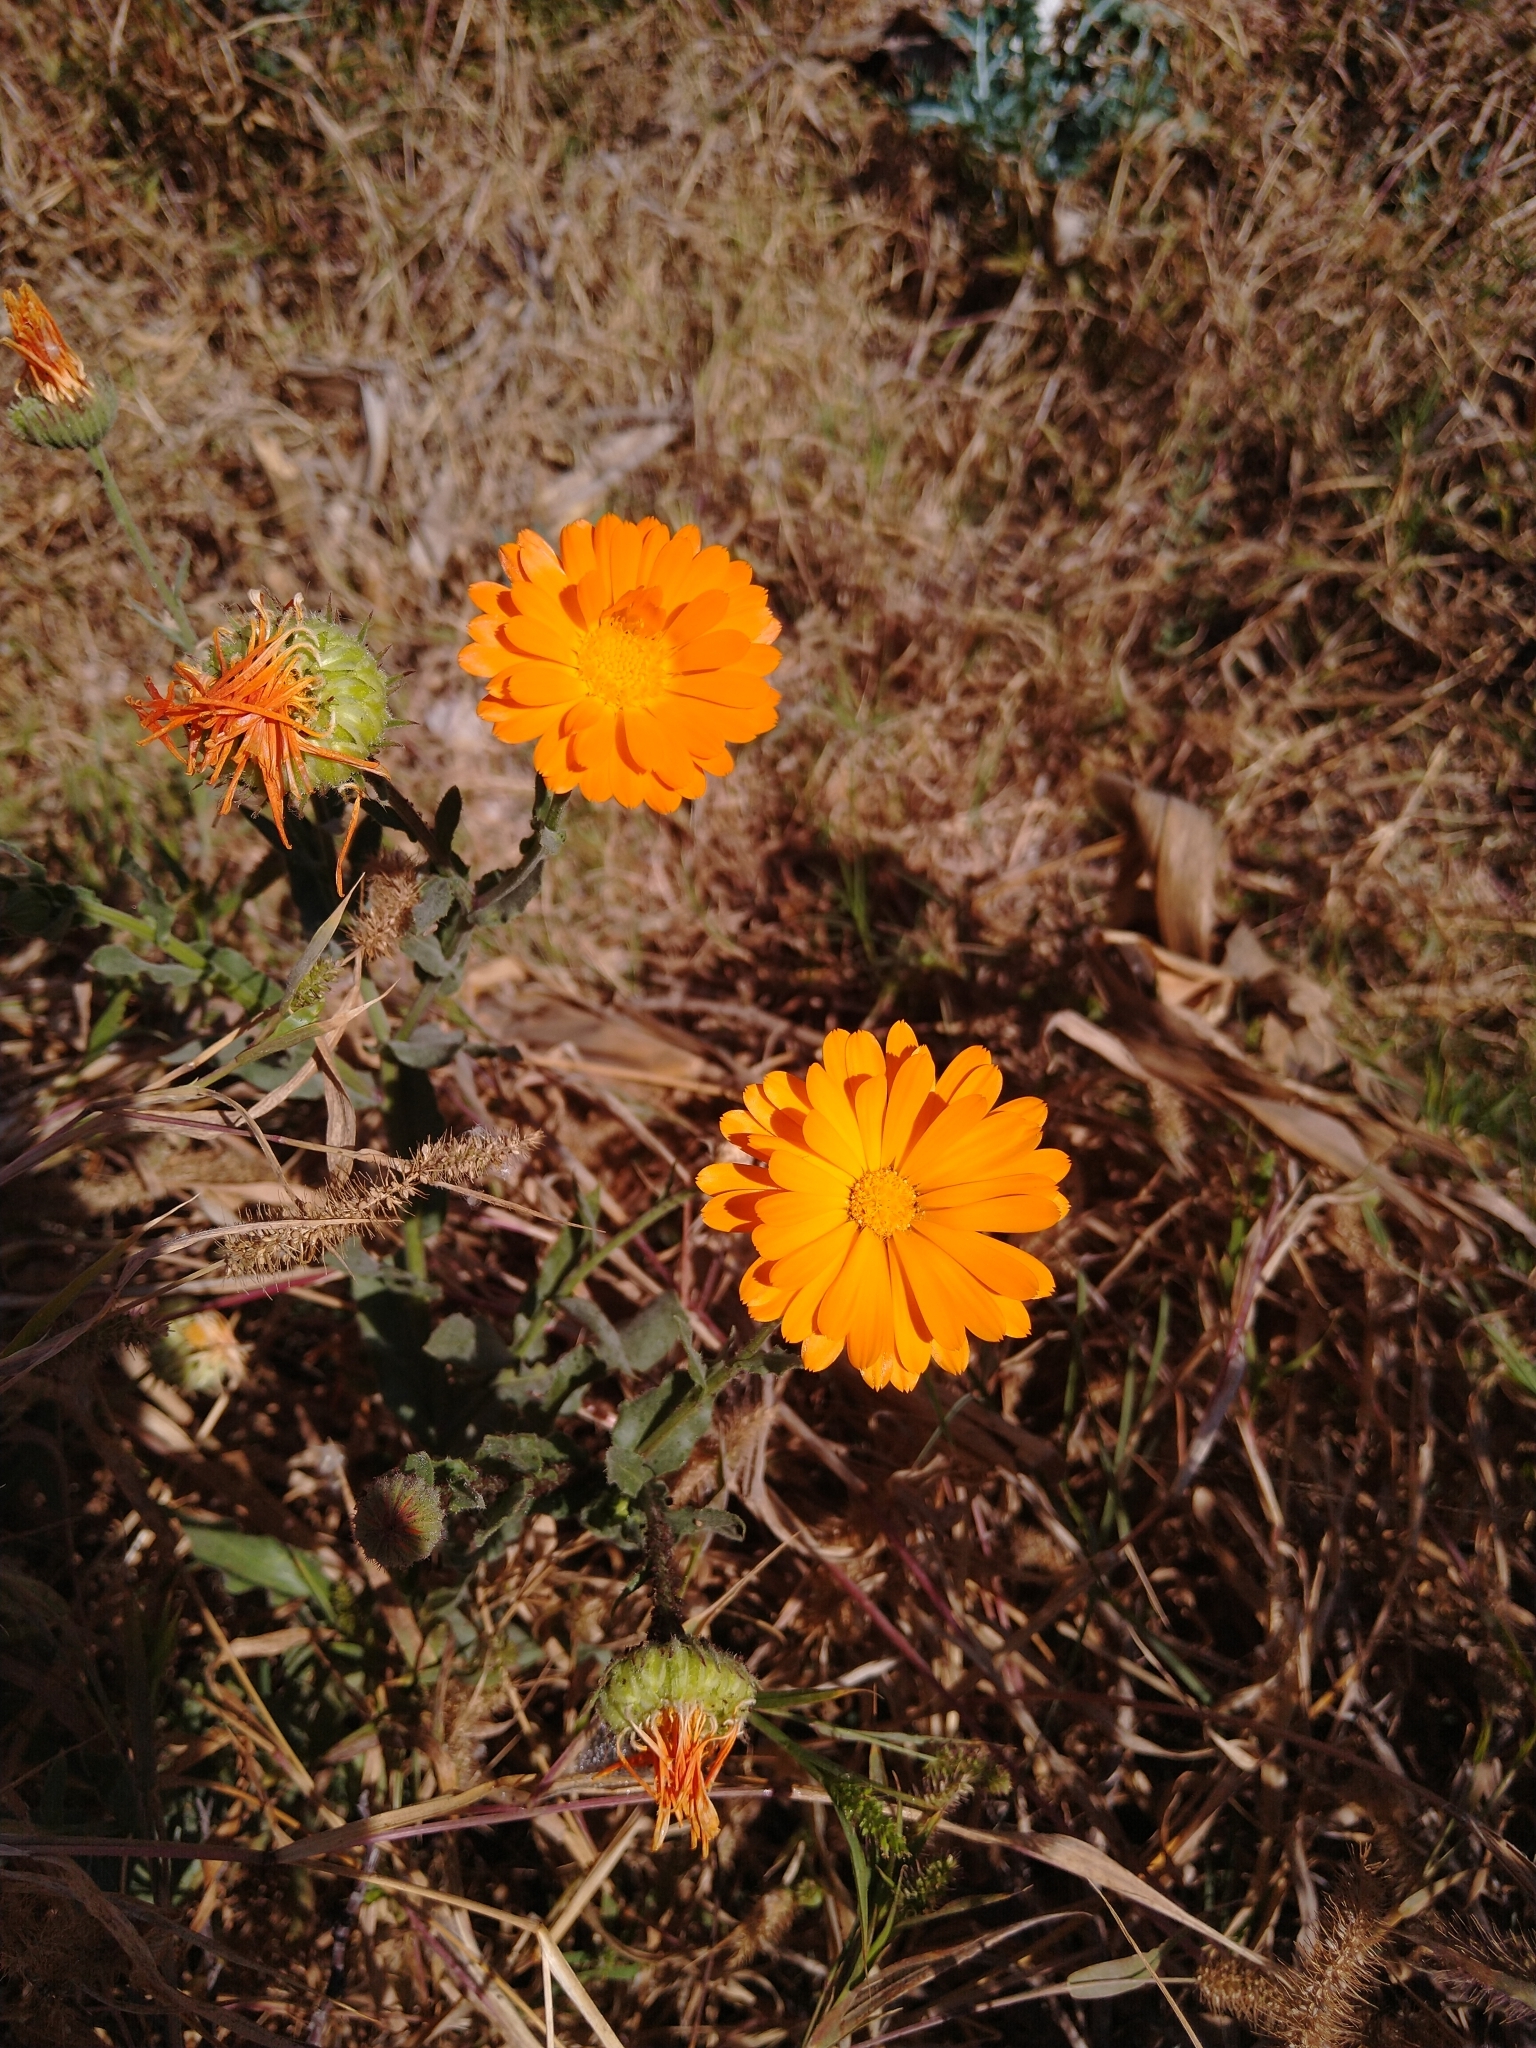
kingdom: Plantae
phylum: Tracheophyta
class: Magnoliopsida
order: Asterales
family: Asteraceae
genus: Calendula
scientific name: Calendula officinalis
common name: Pot marigold
